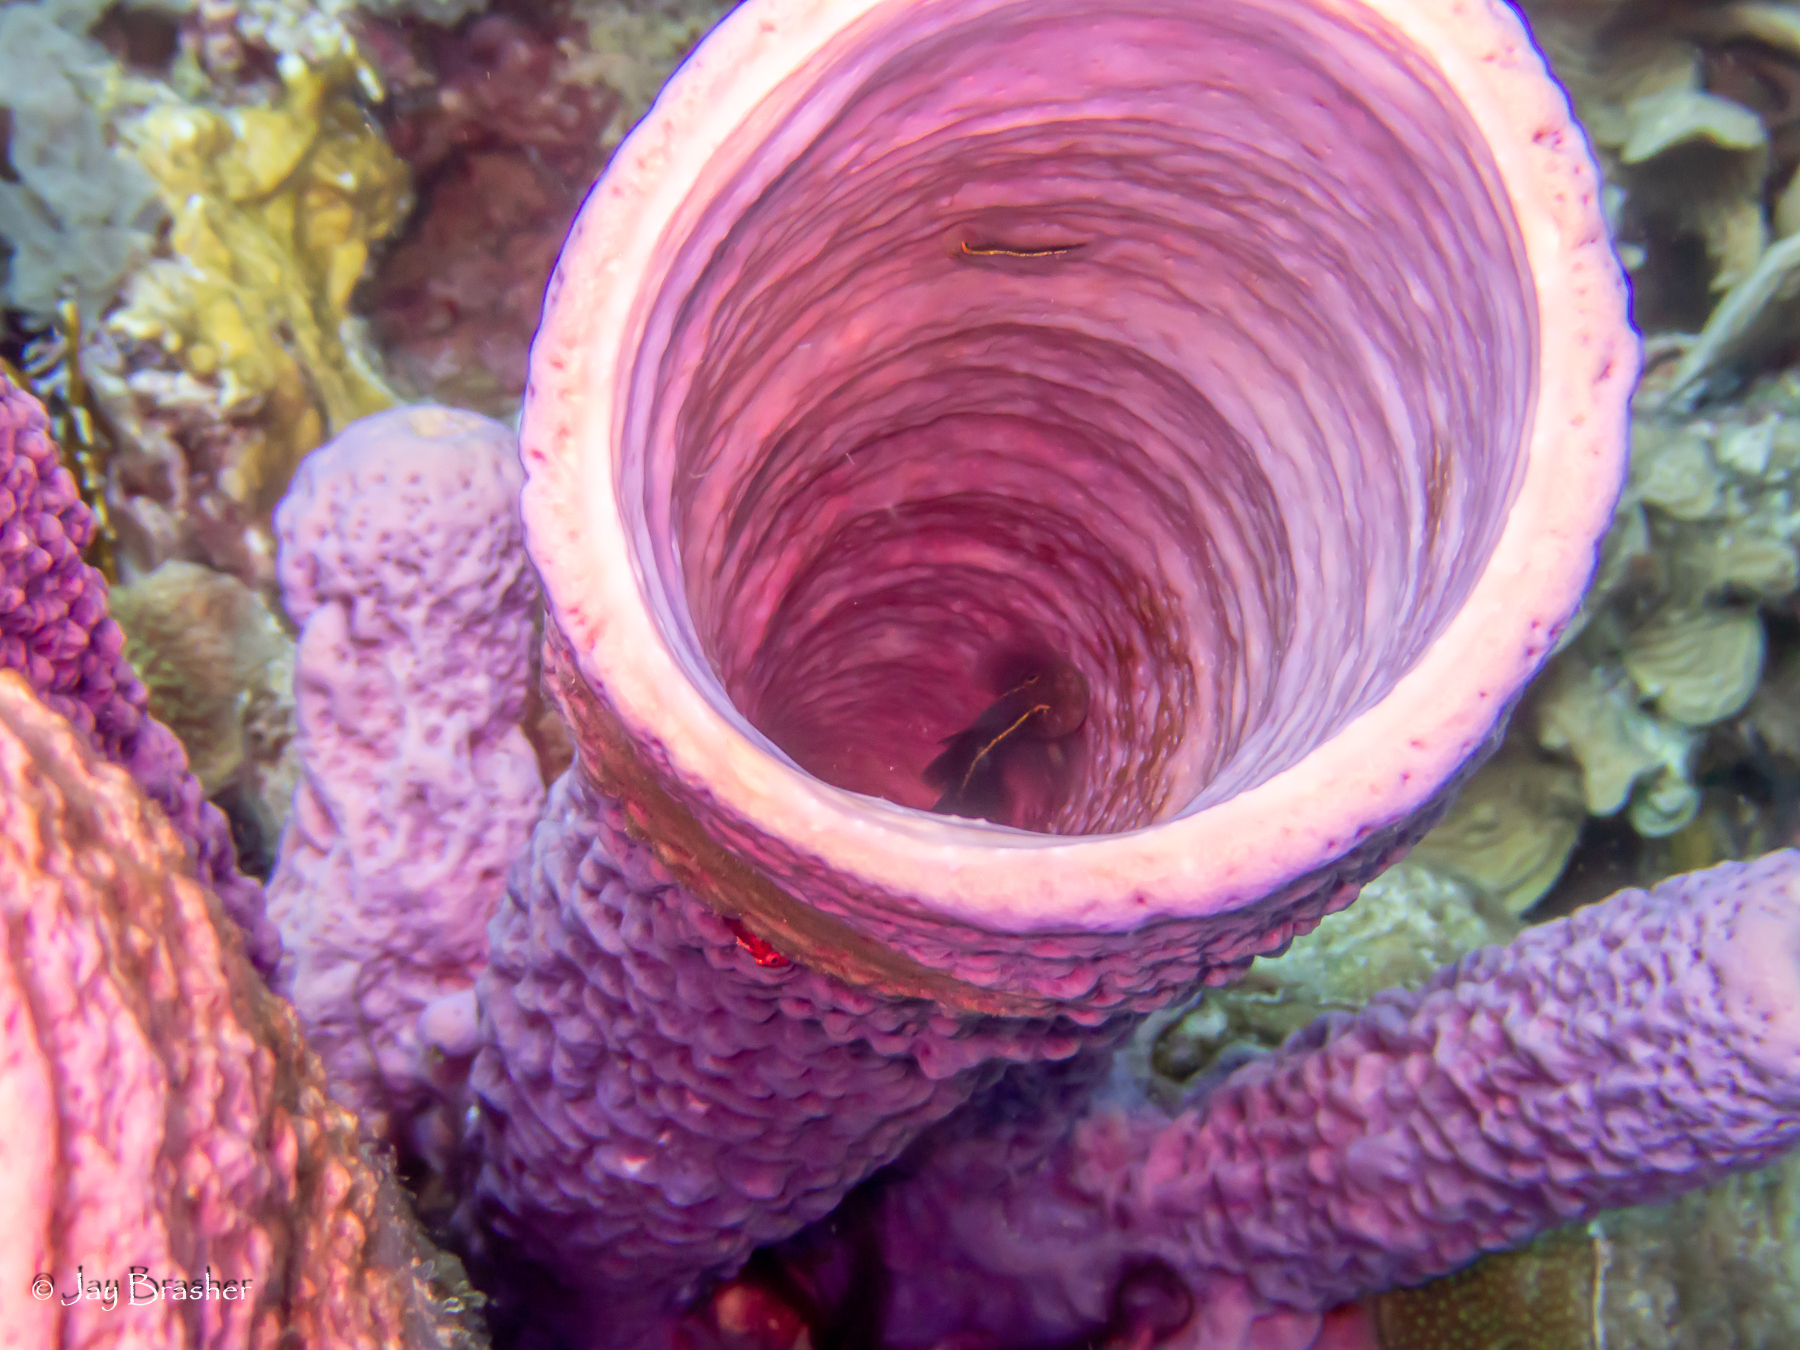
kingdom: Animalia
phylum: Chordata
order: Perciformes
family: Gobiidae
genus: Elacatinus
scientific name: Elacatinus horsti
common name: Yellowline goby
